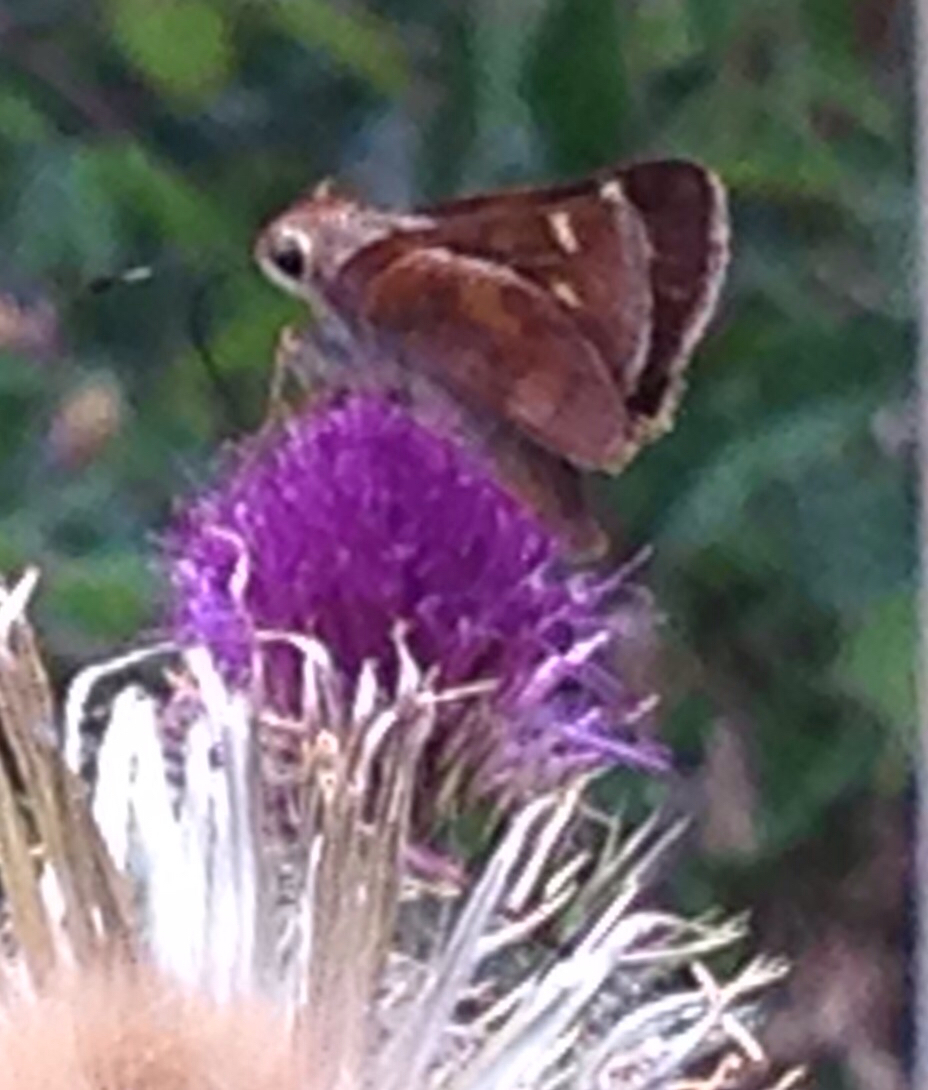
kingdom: Animalia
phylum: Arthropoda
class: Insecta
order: Lepidoptera
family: Hesperiidae
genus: Lon
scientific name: Lon melane
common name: Umber skipper
